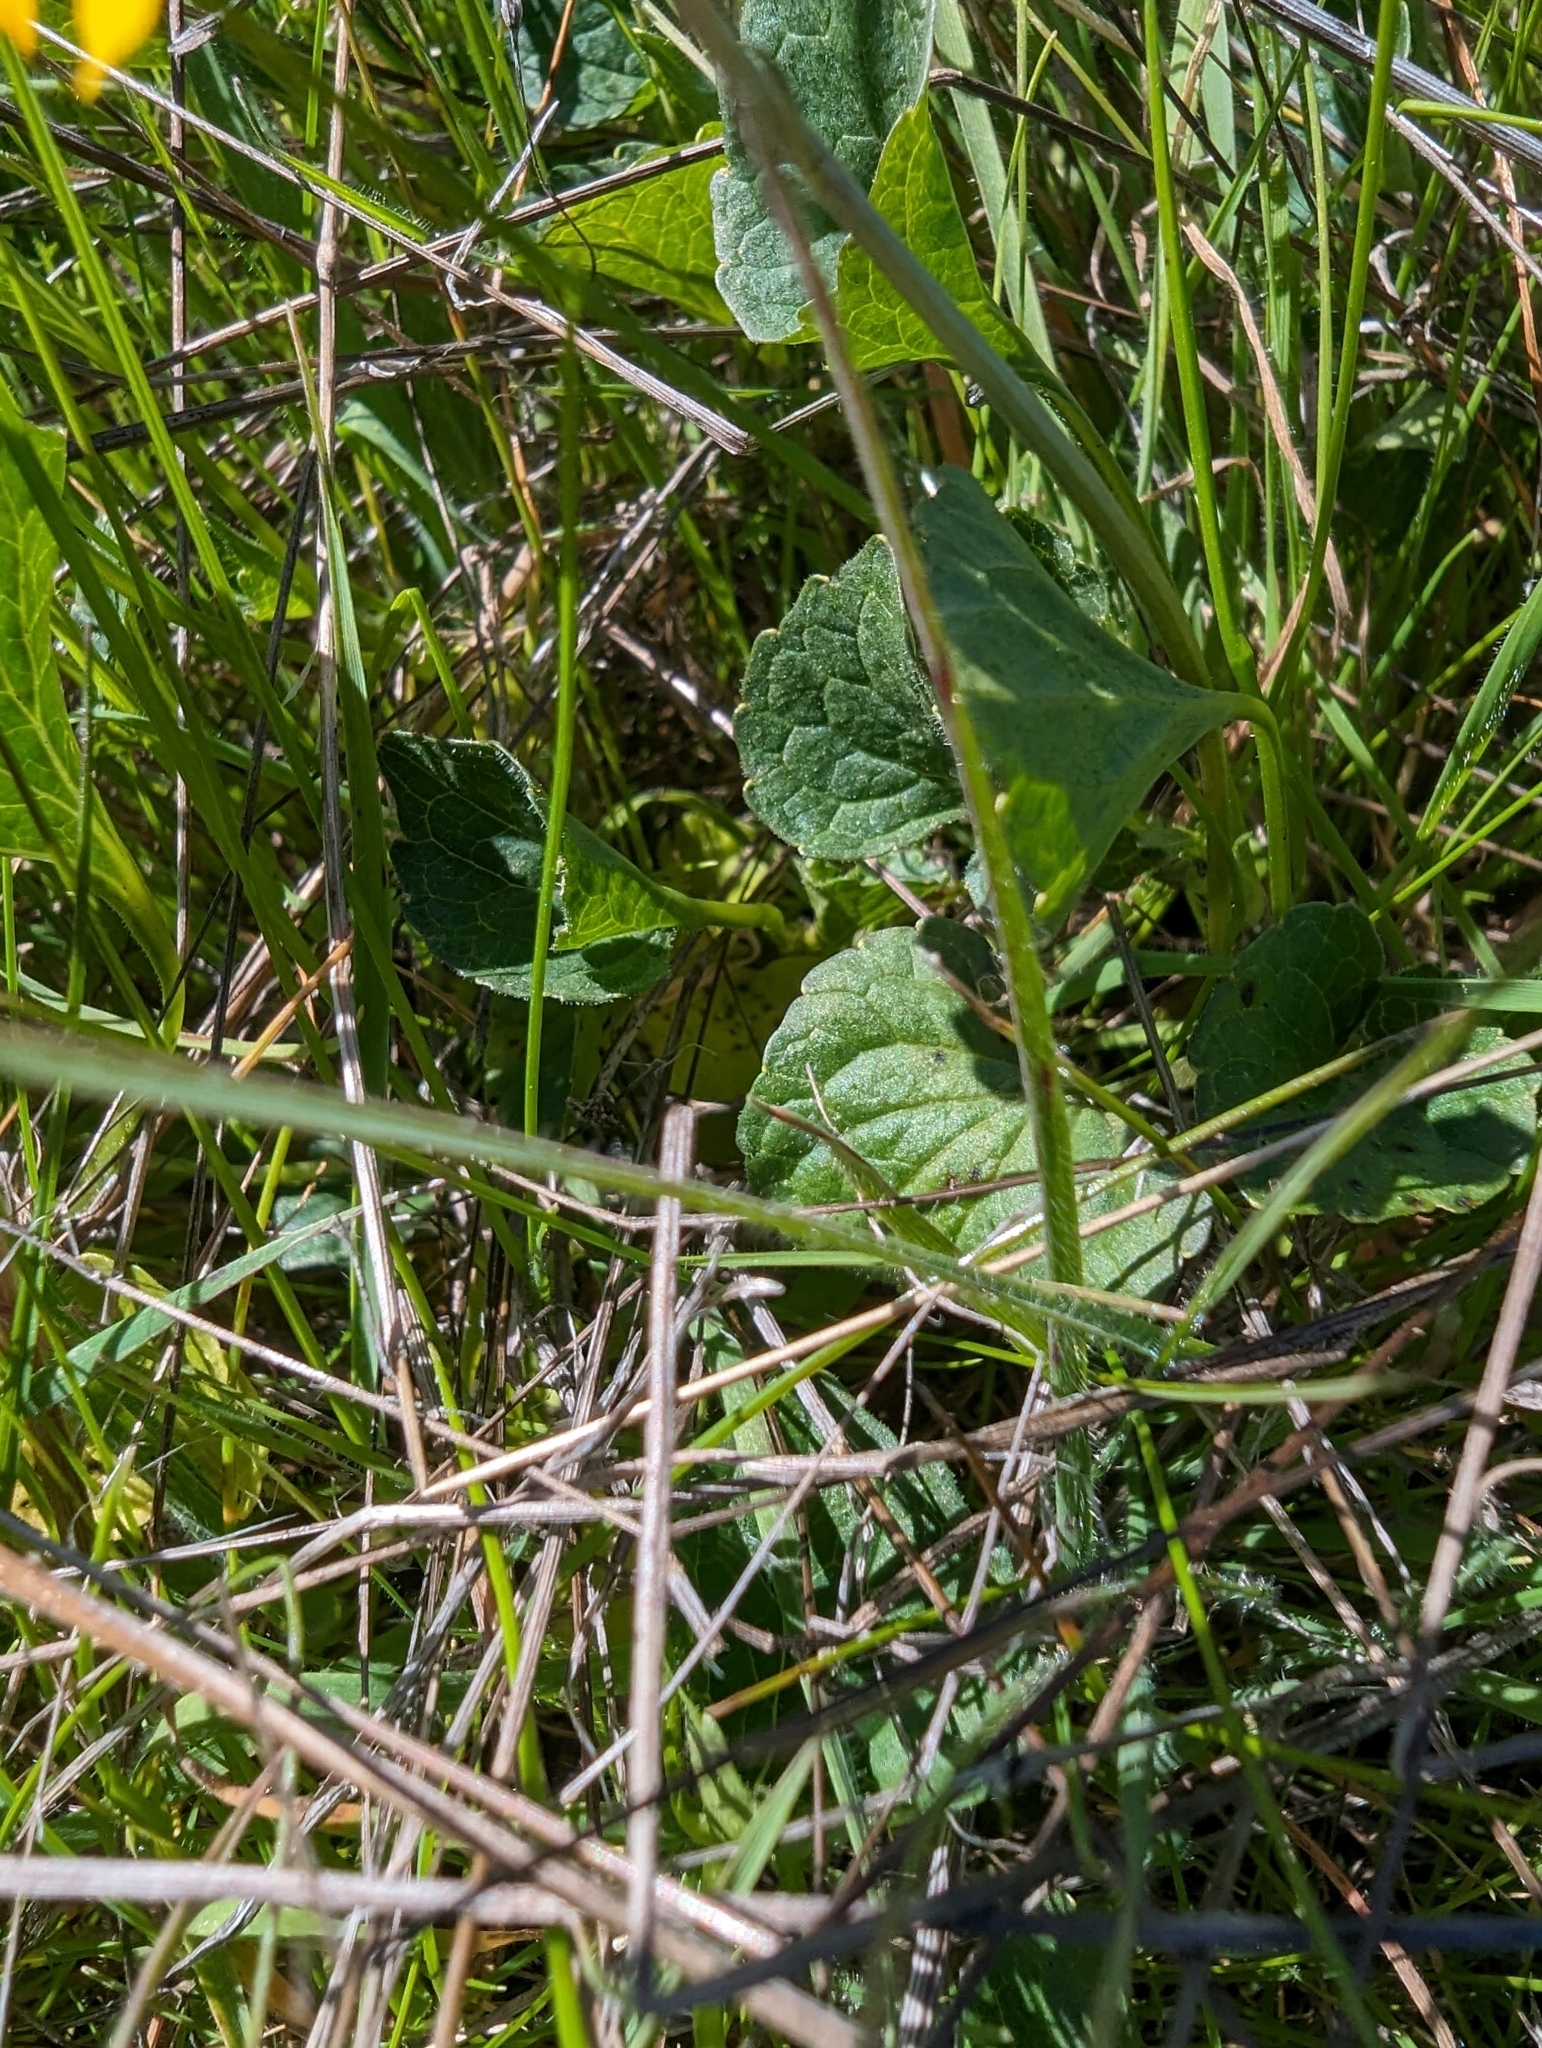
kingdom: Plantae
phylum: Tracheophyta
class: Magnoliopsida
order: Malpighiales
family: Violaceae
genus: Viola
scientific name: Viola pedunculata
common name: California golden violet
